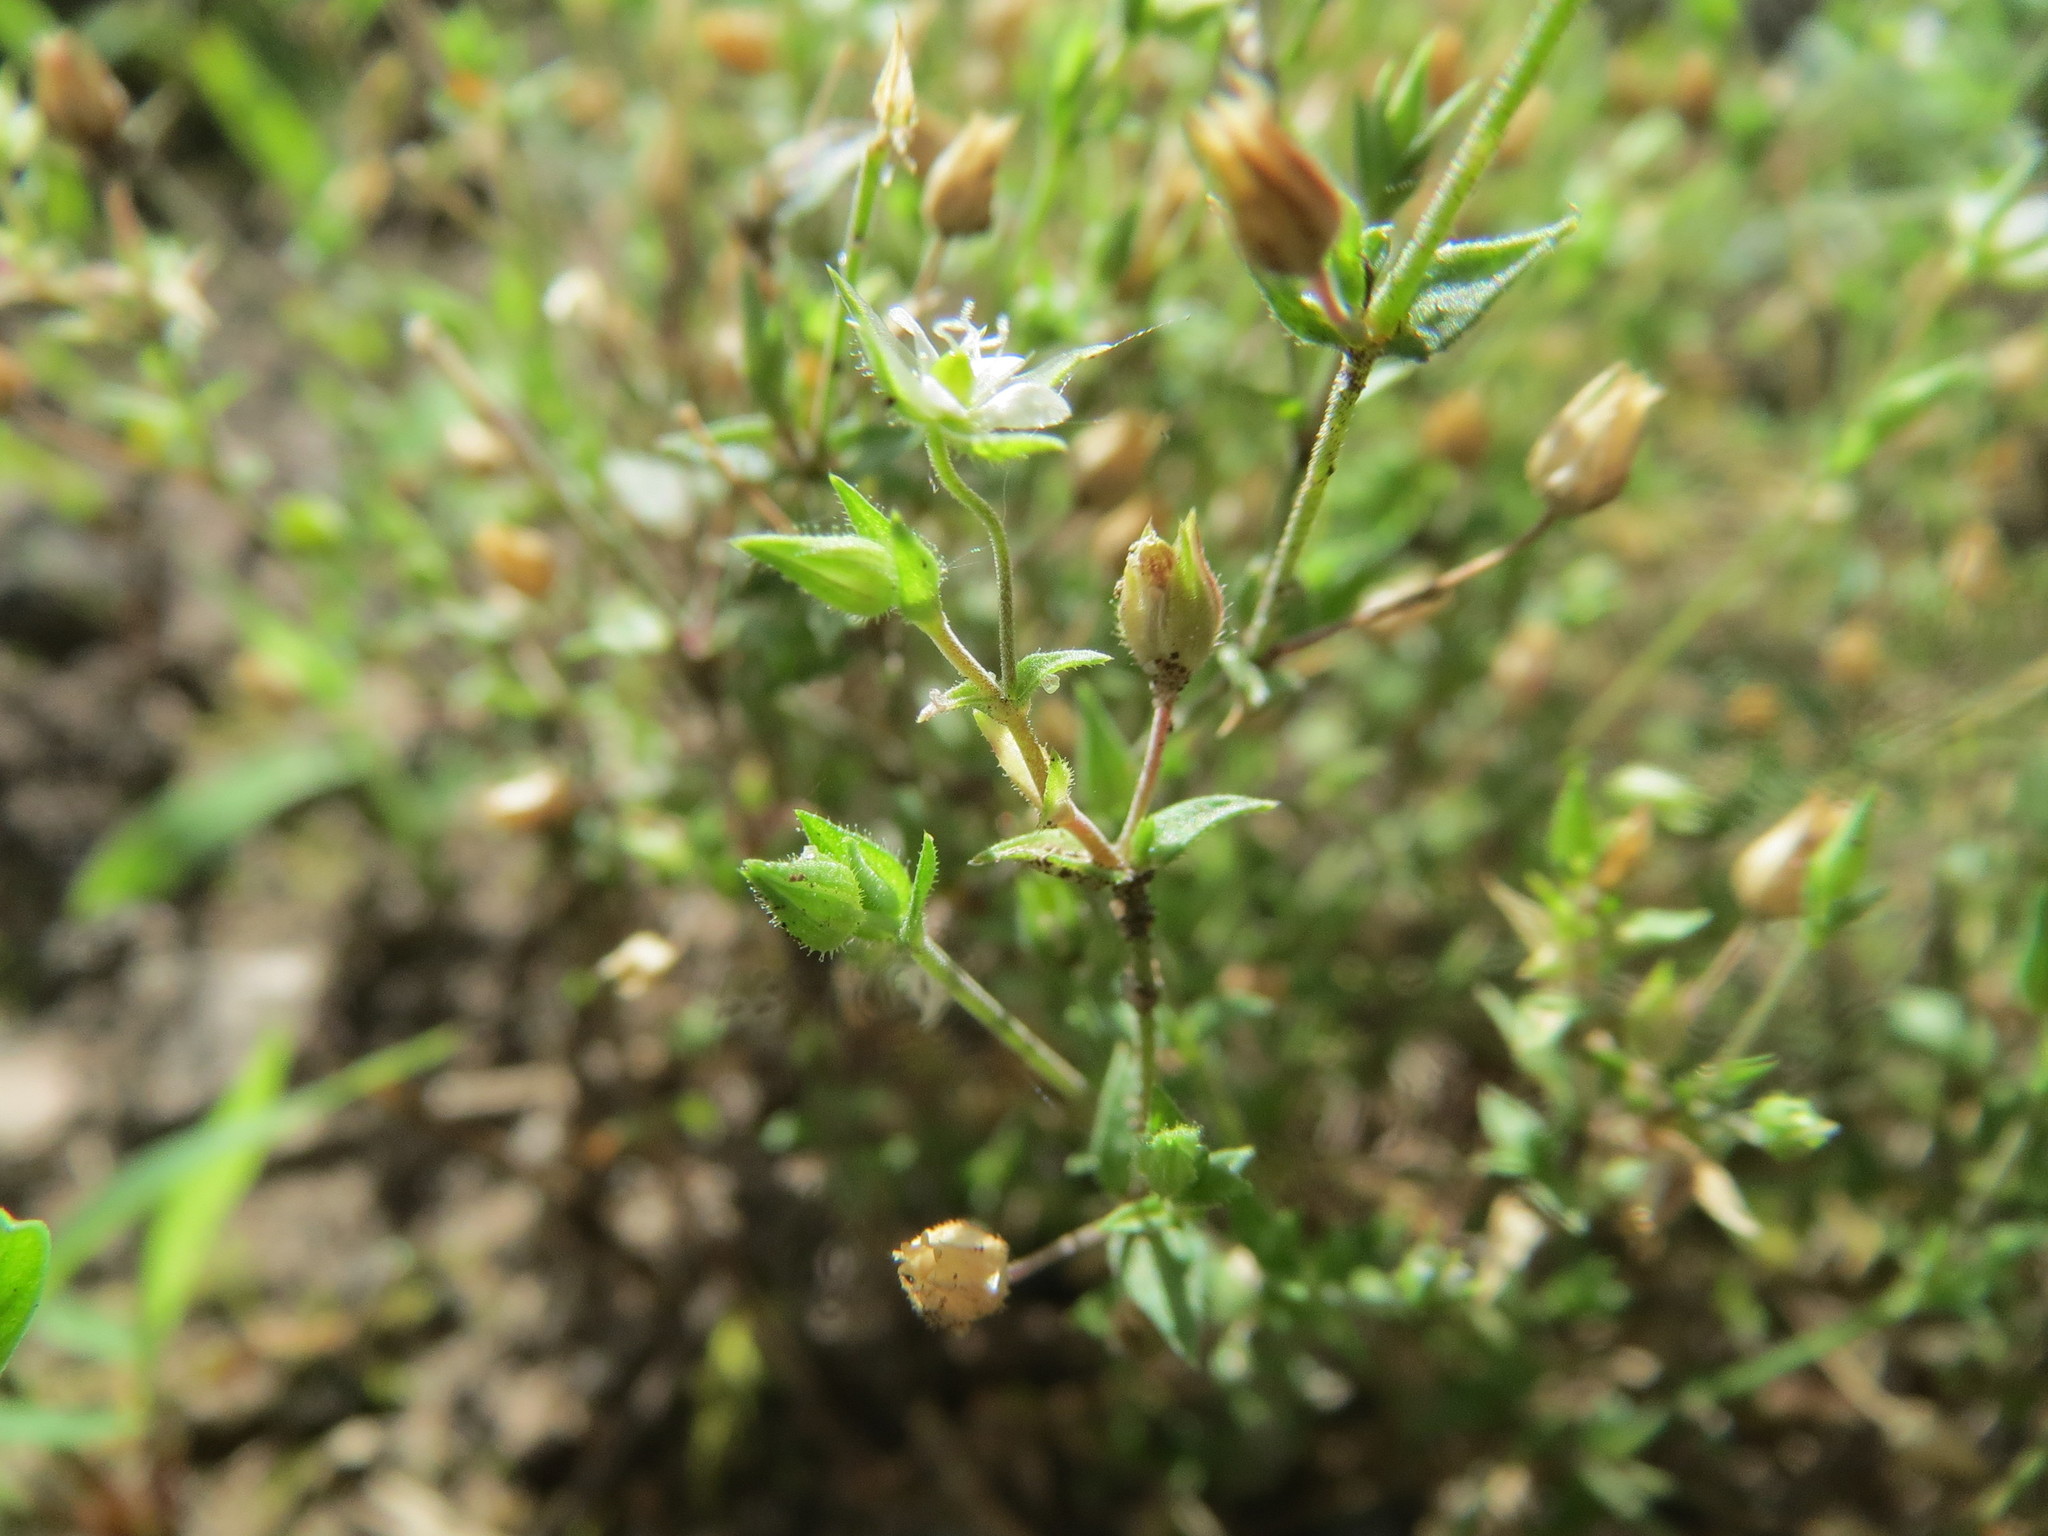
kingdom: Plantae
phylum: Tracheophyta
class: Magnoliopsida
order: Caryophyllales
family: Caryophyllaceae
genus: Arenaria
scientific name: Arenaria serpyllifolia
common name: Thyme-leaved sandwort
